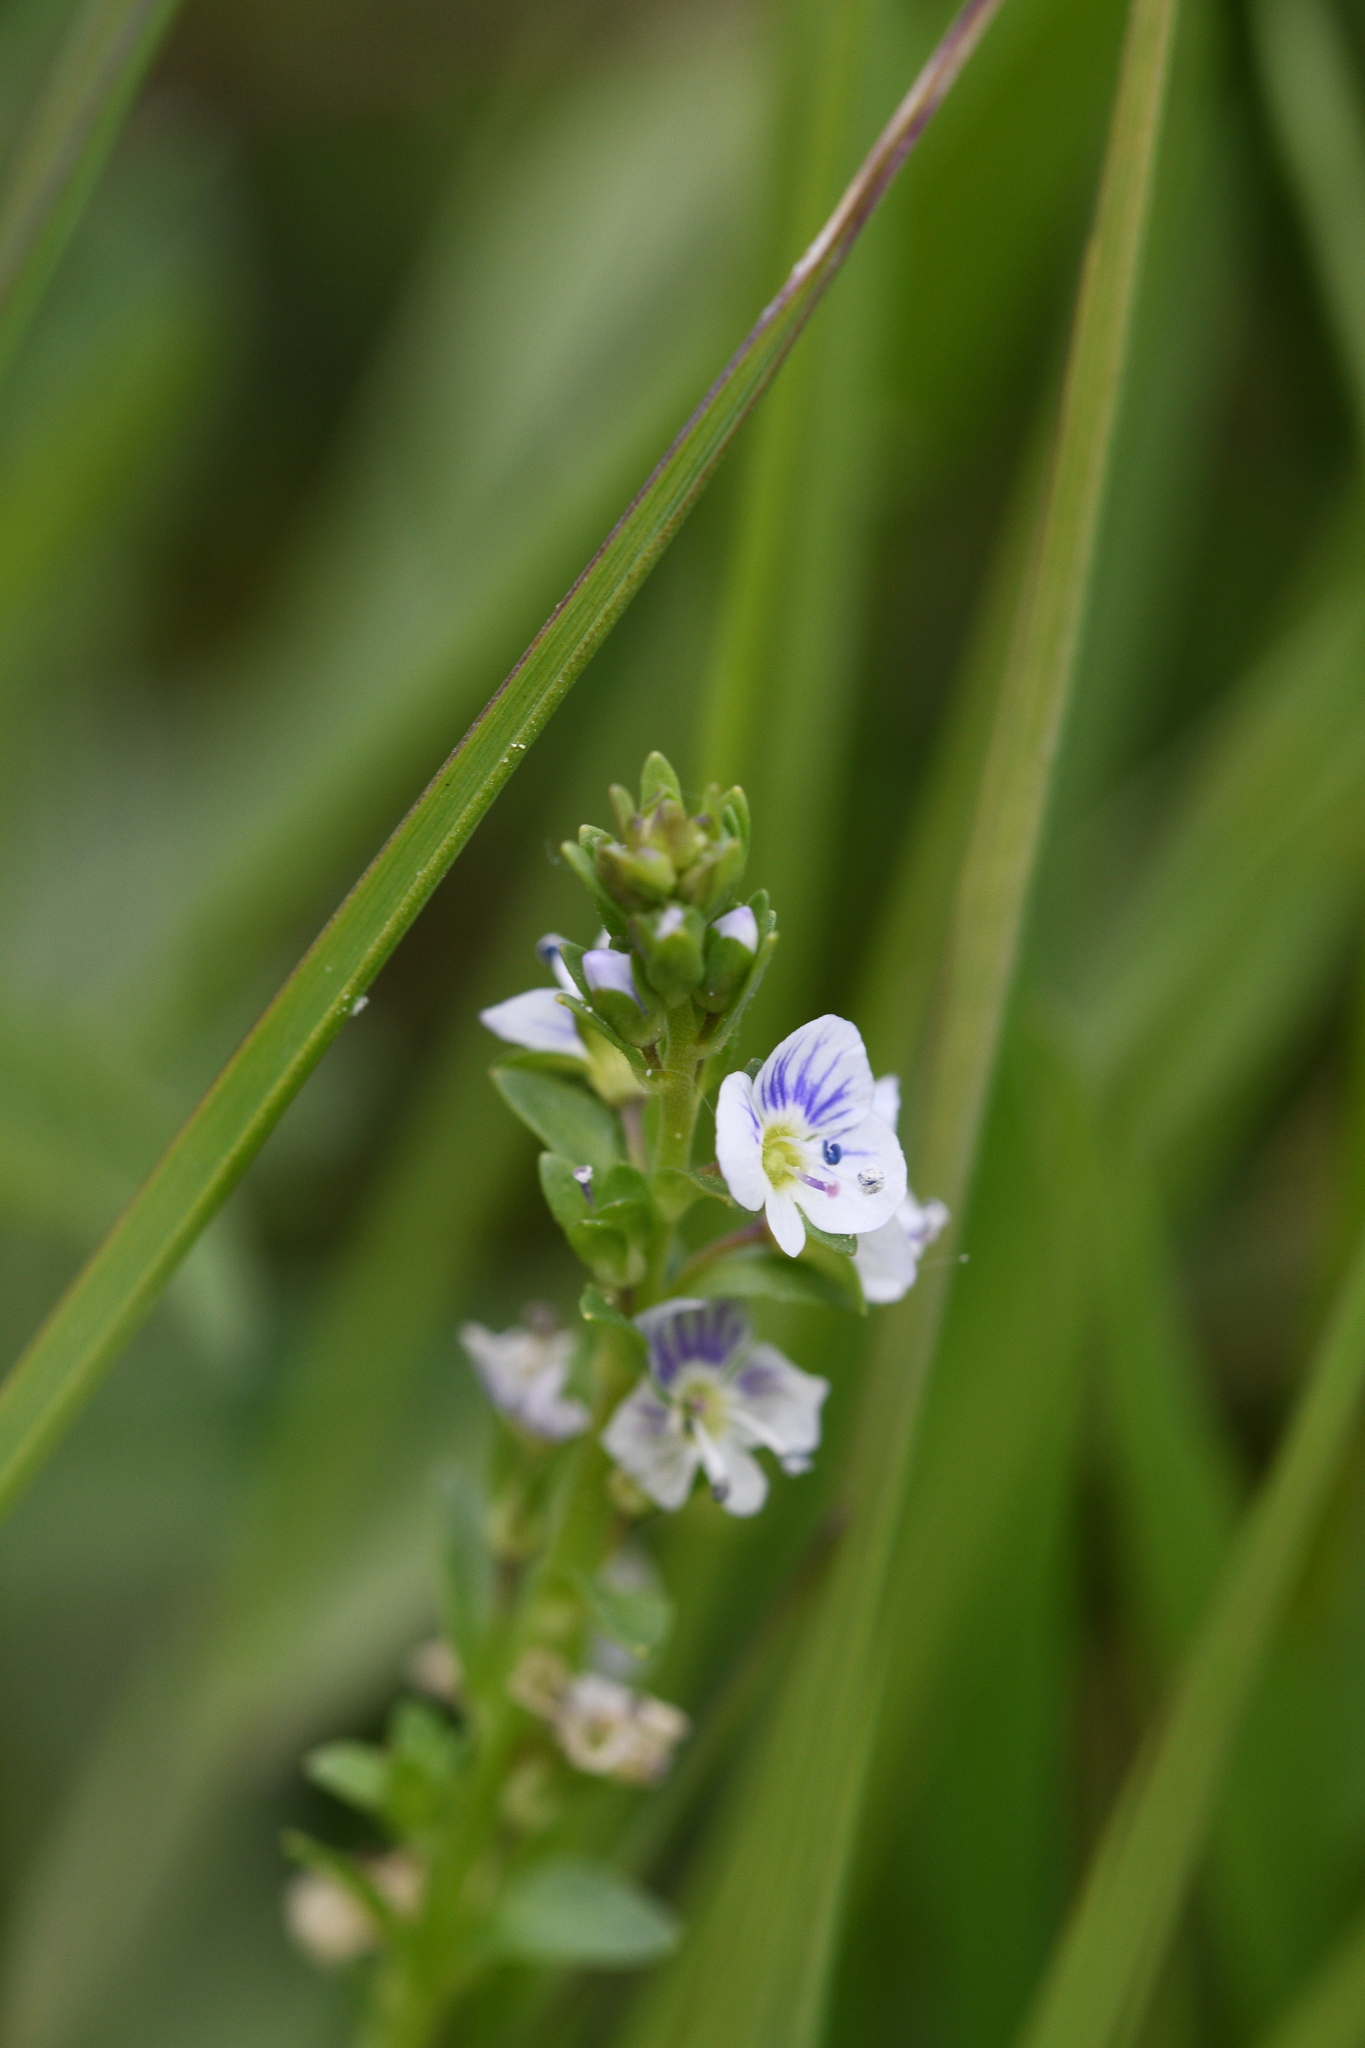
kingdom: Plantae
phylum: Tracheophyta
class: Magnoliopsida
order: Lamiales
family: Plantaginaceae
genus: Veronica
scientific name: Veronica serpyllifolia
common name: Thyme-leaved speedwell
